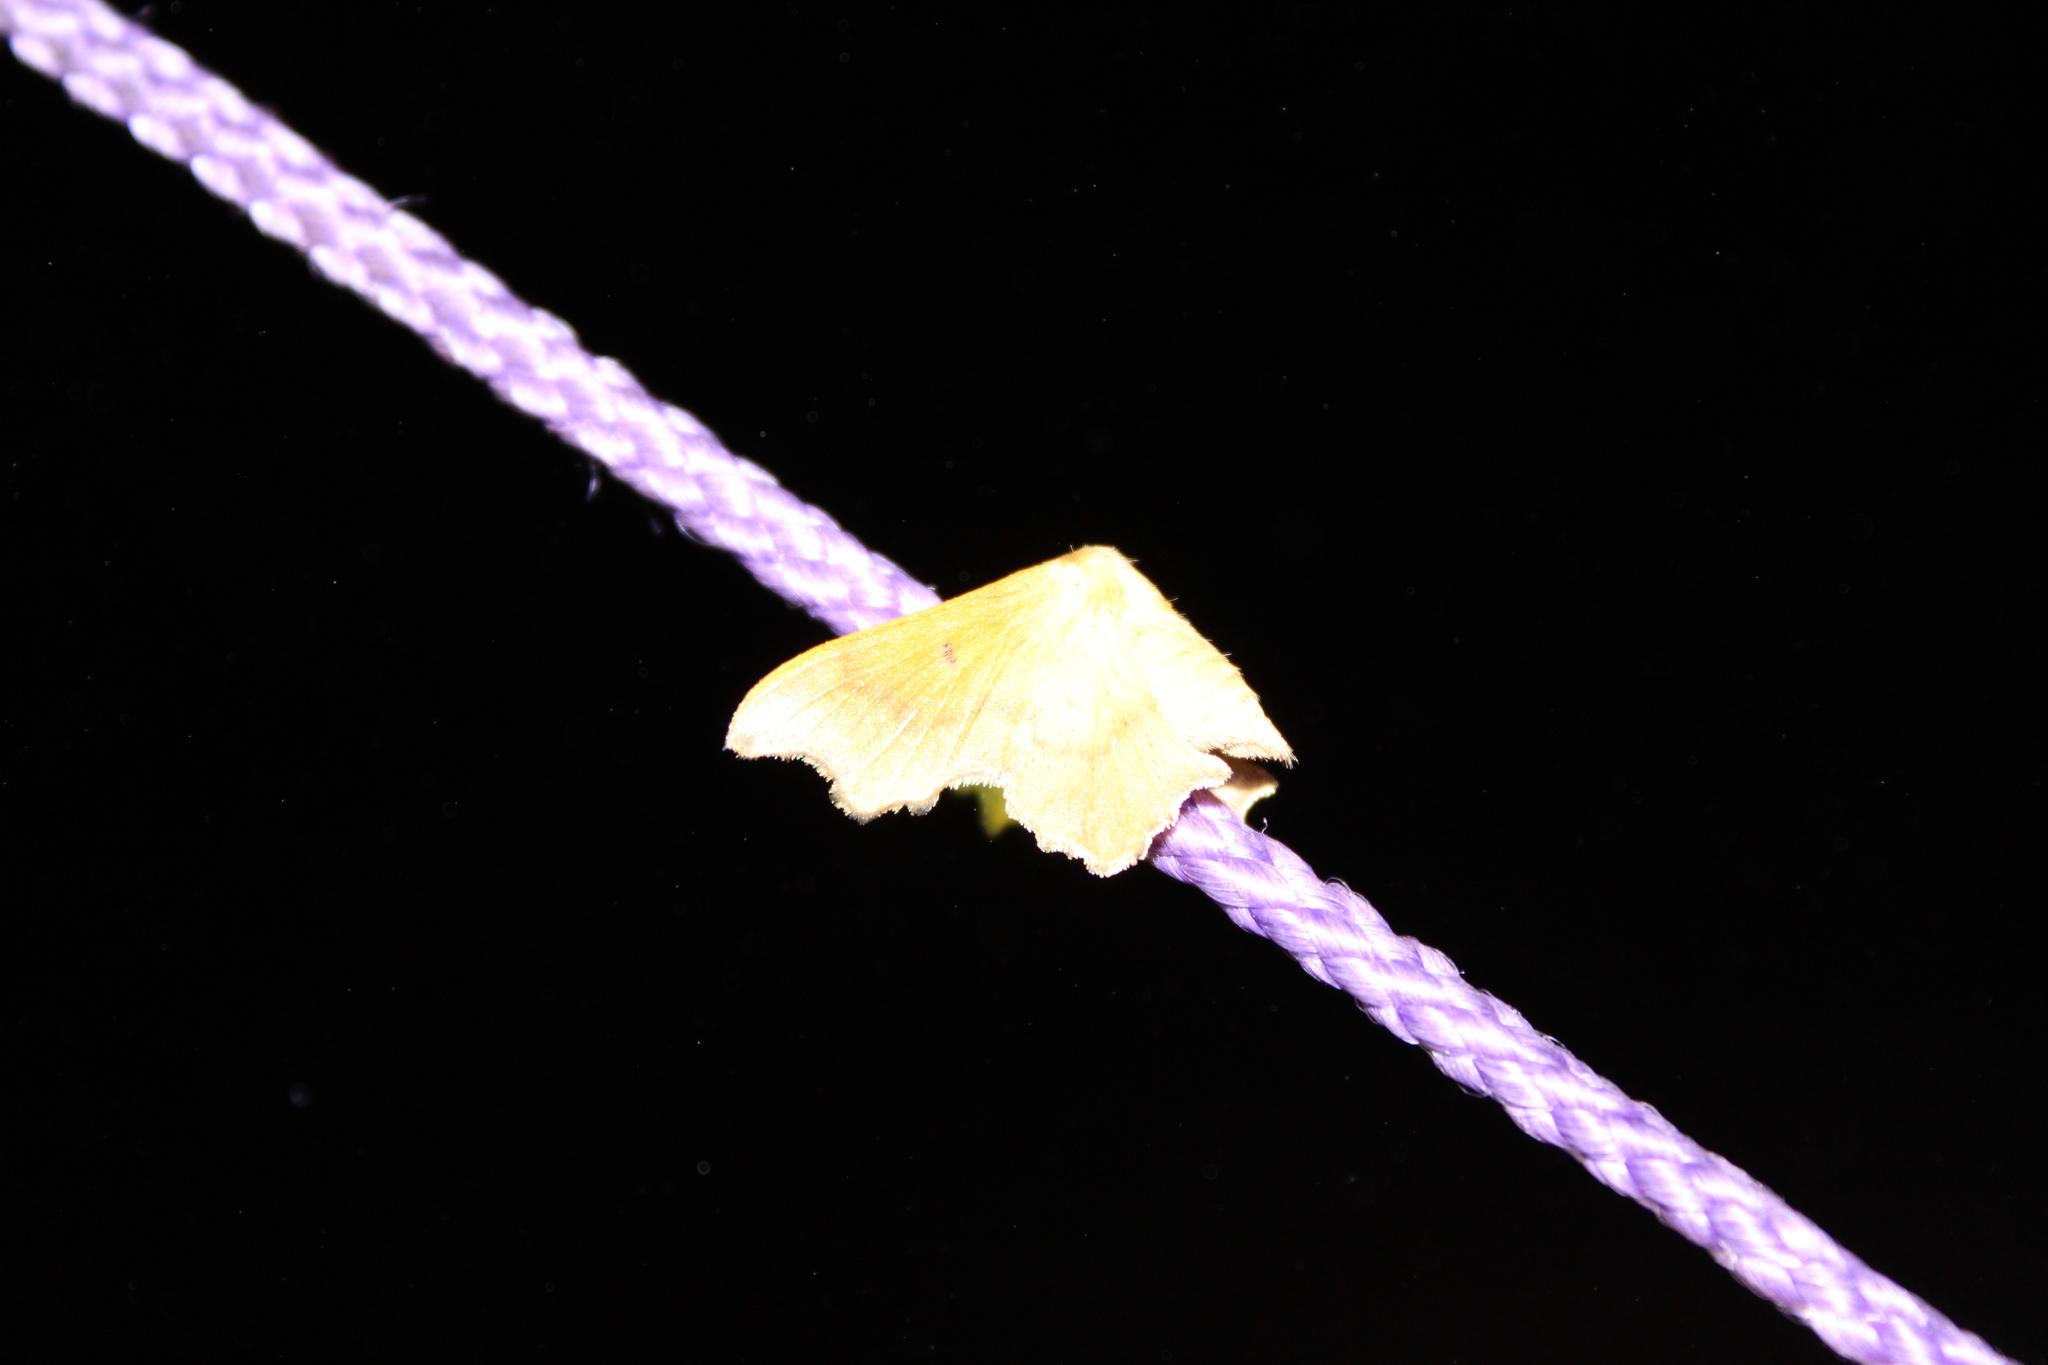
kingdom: Animalia
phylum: Arthropoda
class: Insecta
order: Lepidoptera
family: Mimallonidae
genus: Lacosoma
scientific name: Lacosoma chiridota
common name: Scalloped sack-bearer moth
